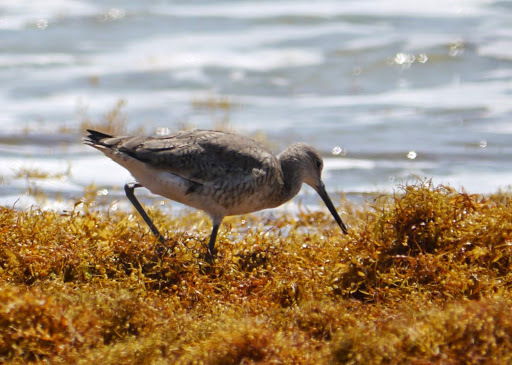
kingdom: Animalia
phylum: Chordata
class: Aves
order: Charadriiformes
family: Scolopacidae
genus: Tringa
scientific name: Tringa semipalmata
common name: Willet
